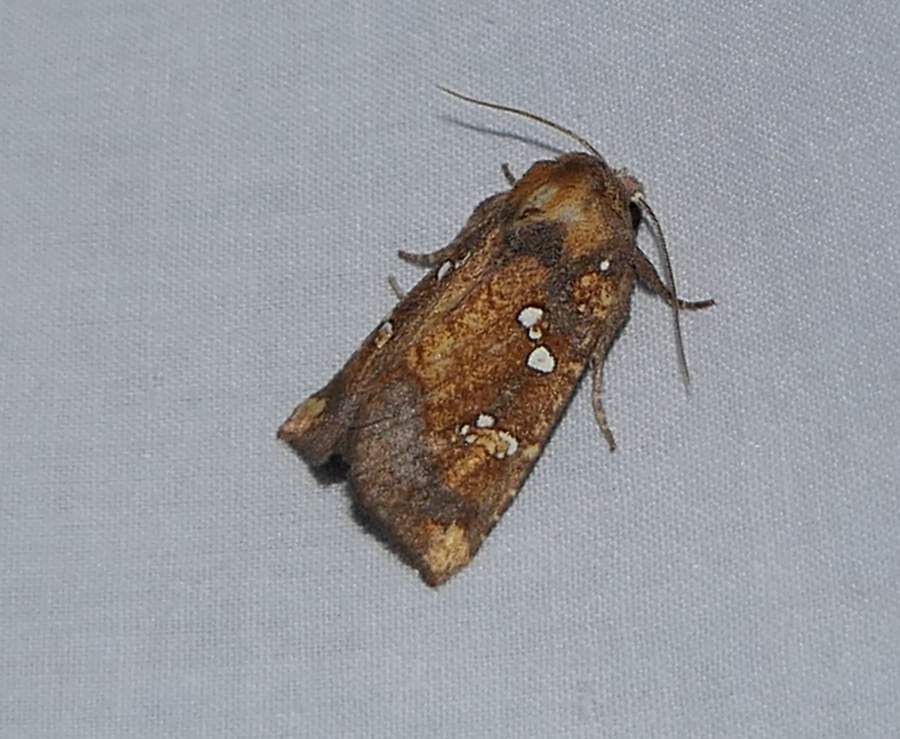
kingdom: Animalia
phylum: Arthropoda
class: Insecta
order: Lepidoptera
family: Noctuidae
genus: Papaipema
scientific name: Papaipema arctivorens
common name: Northern burdock borer moth
